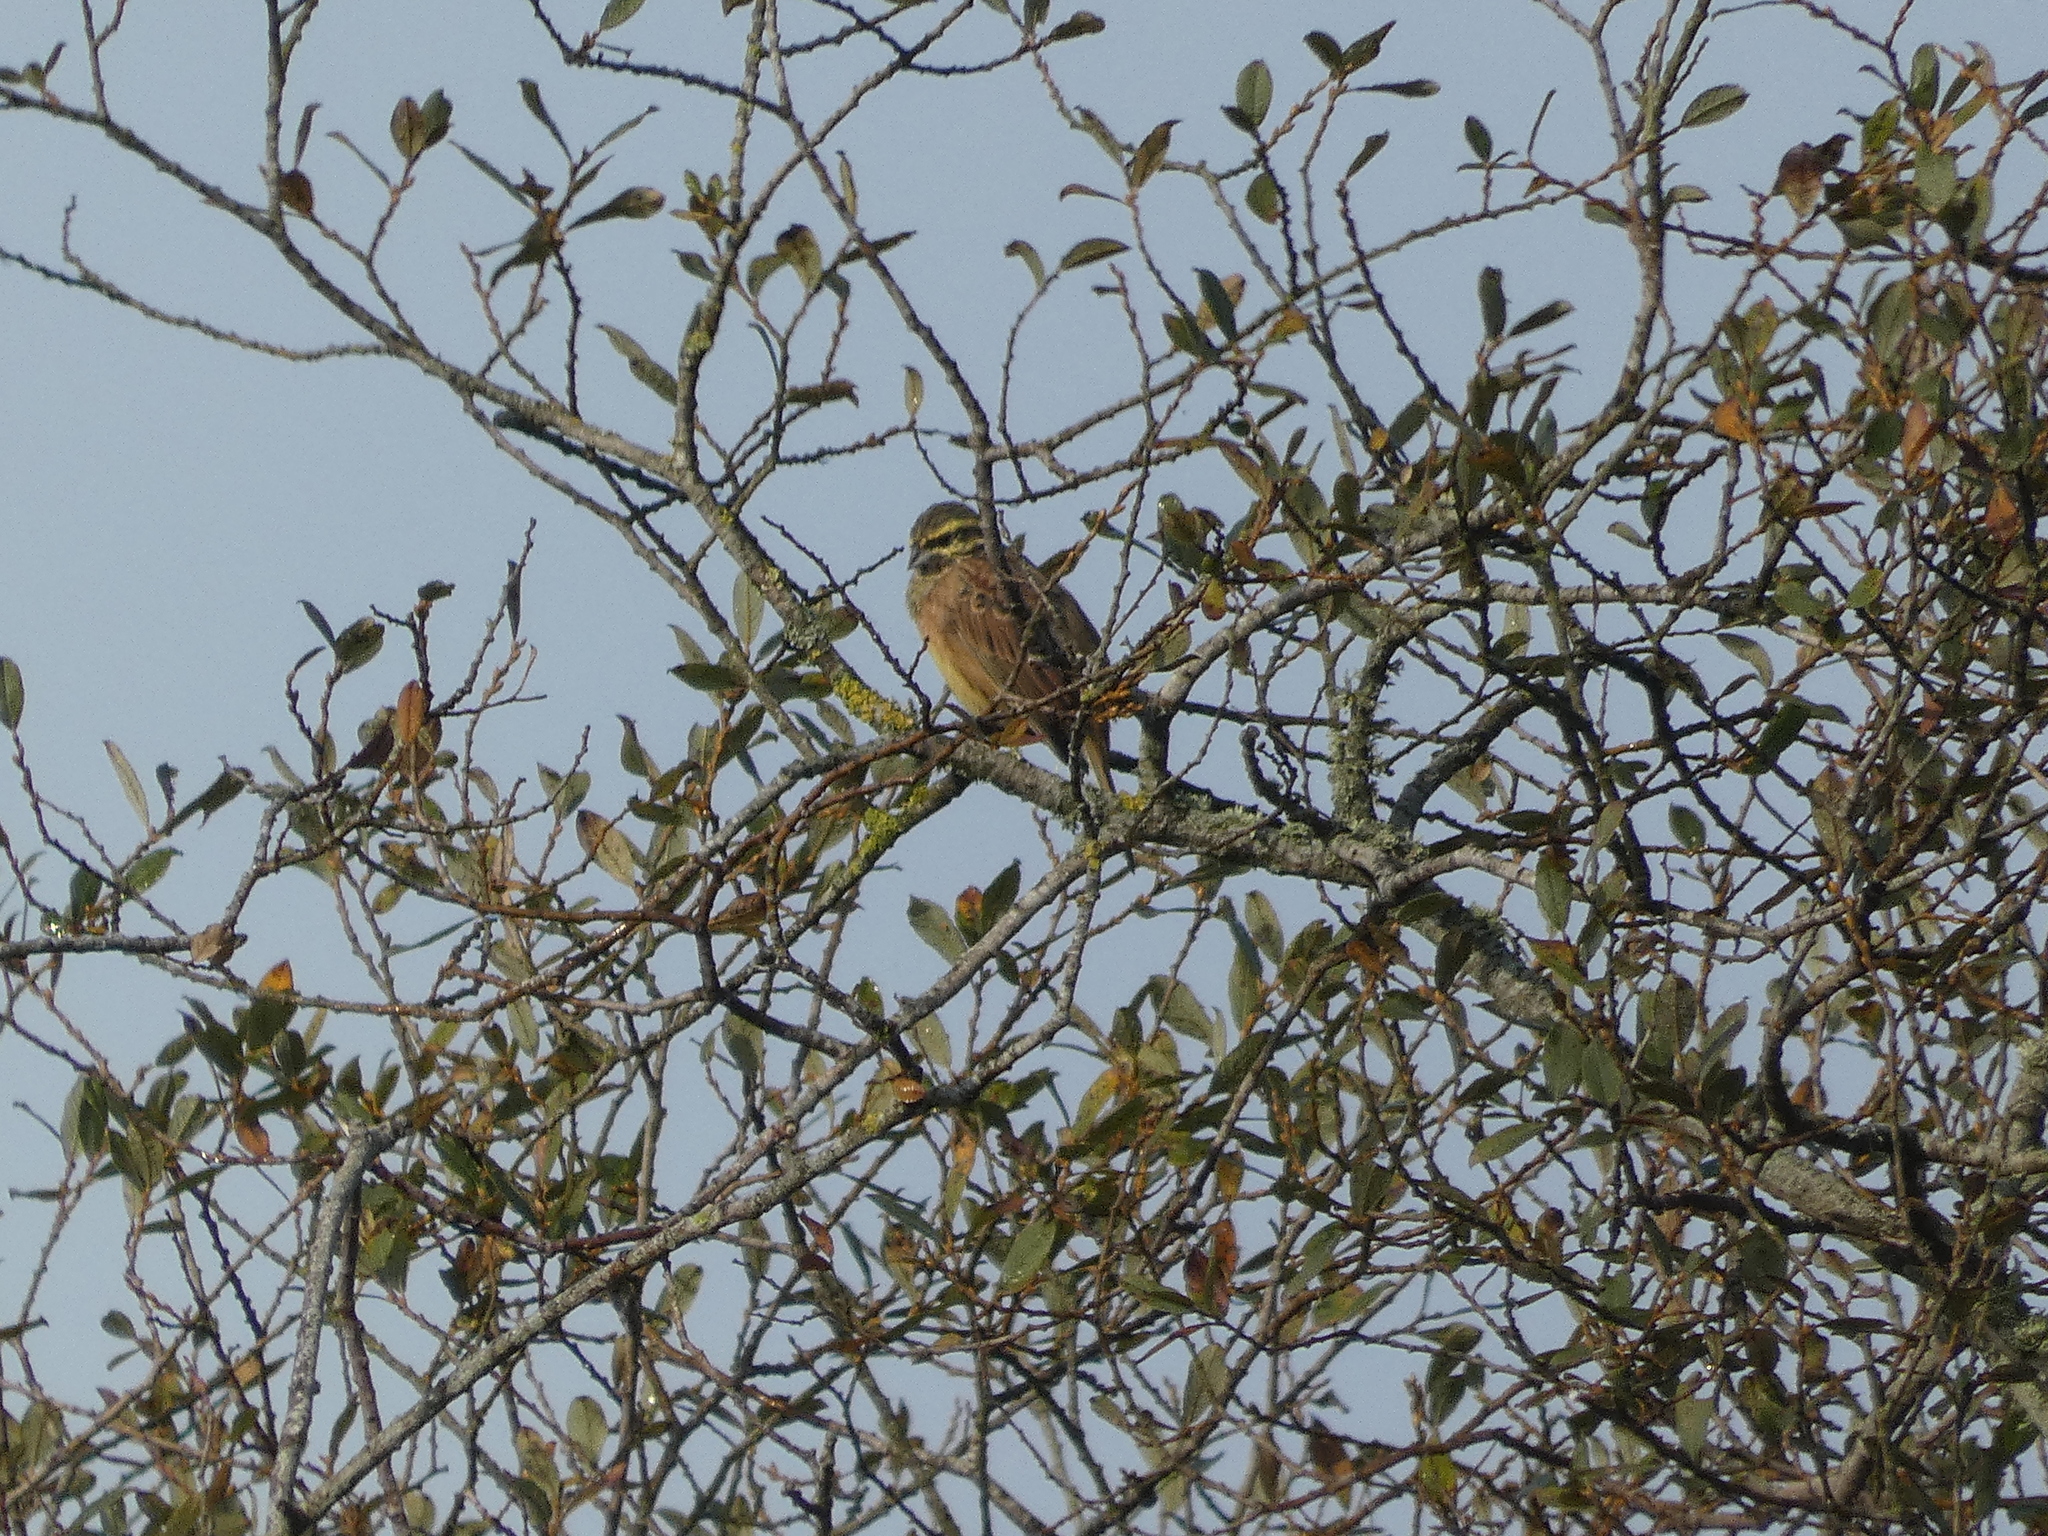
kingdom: Animalia
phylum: Chordata
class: Aves
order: Passeriformes
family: Emberizidae
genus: Emberiza
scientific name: Emberiza cirlus
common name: Cirl bunting
